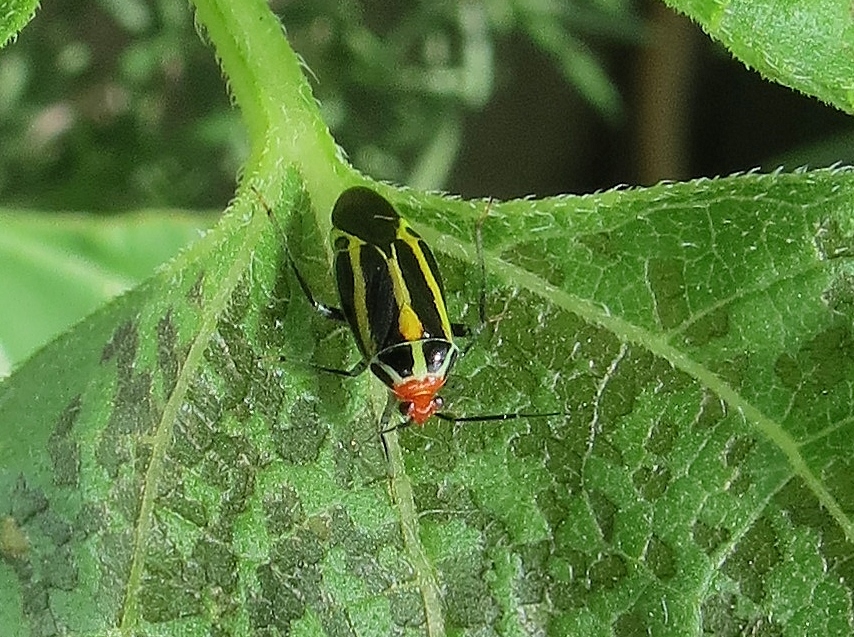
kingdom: Animalia
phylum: Arthropoda
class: Insecta
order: Hemiptera
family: Miridae
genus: Poecilocapsus
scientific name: Poecilocapsus lineatus
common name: Four-lined plant bug
